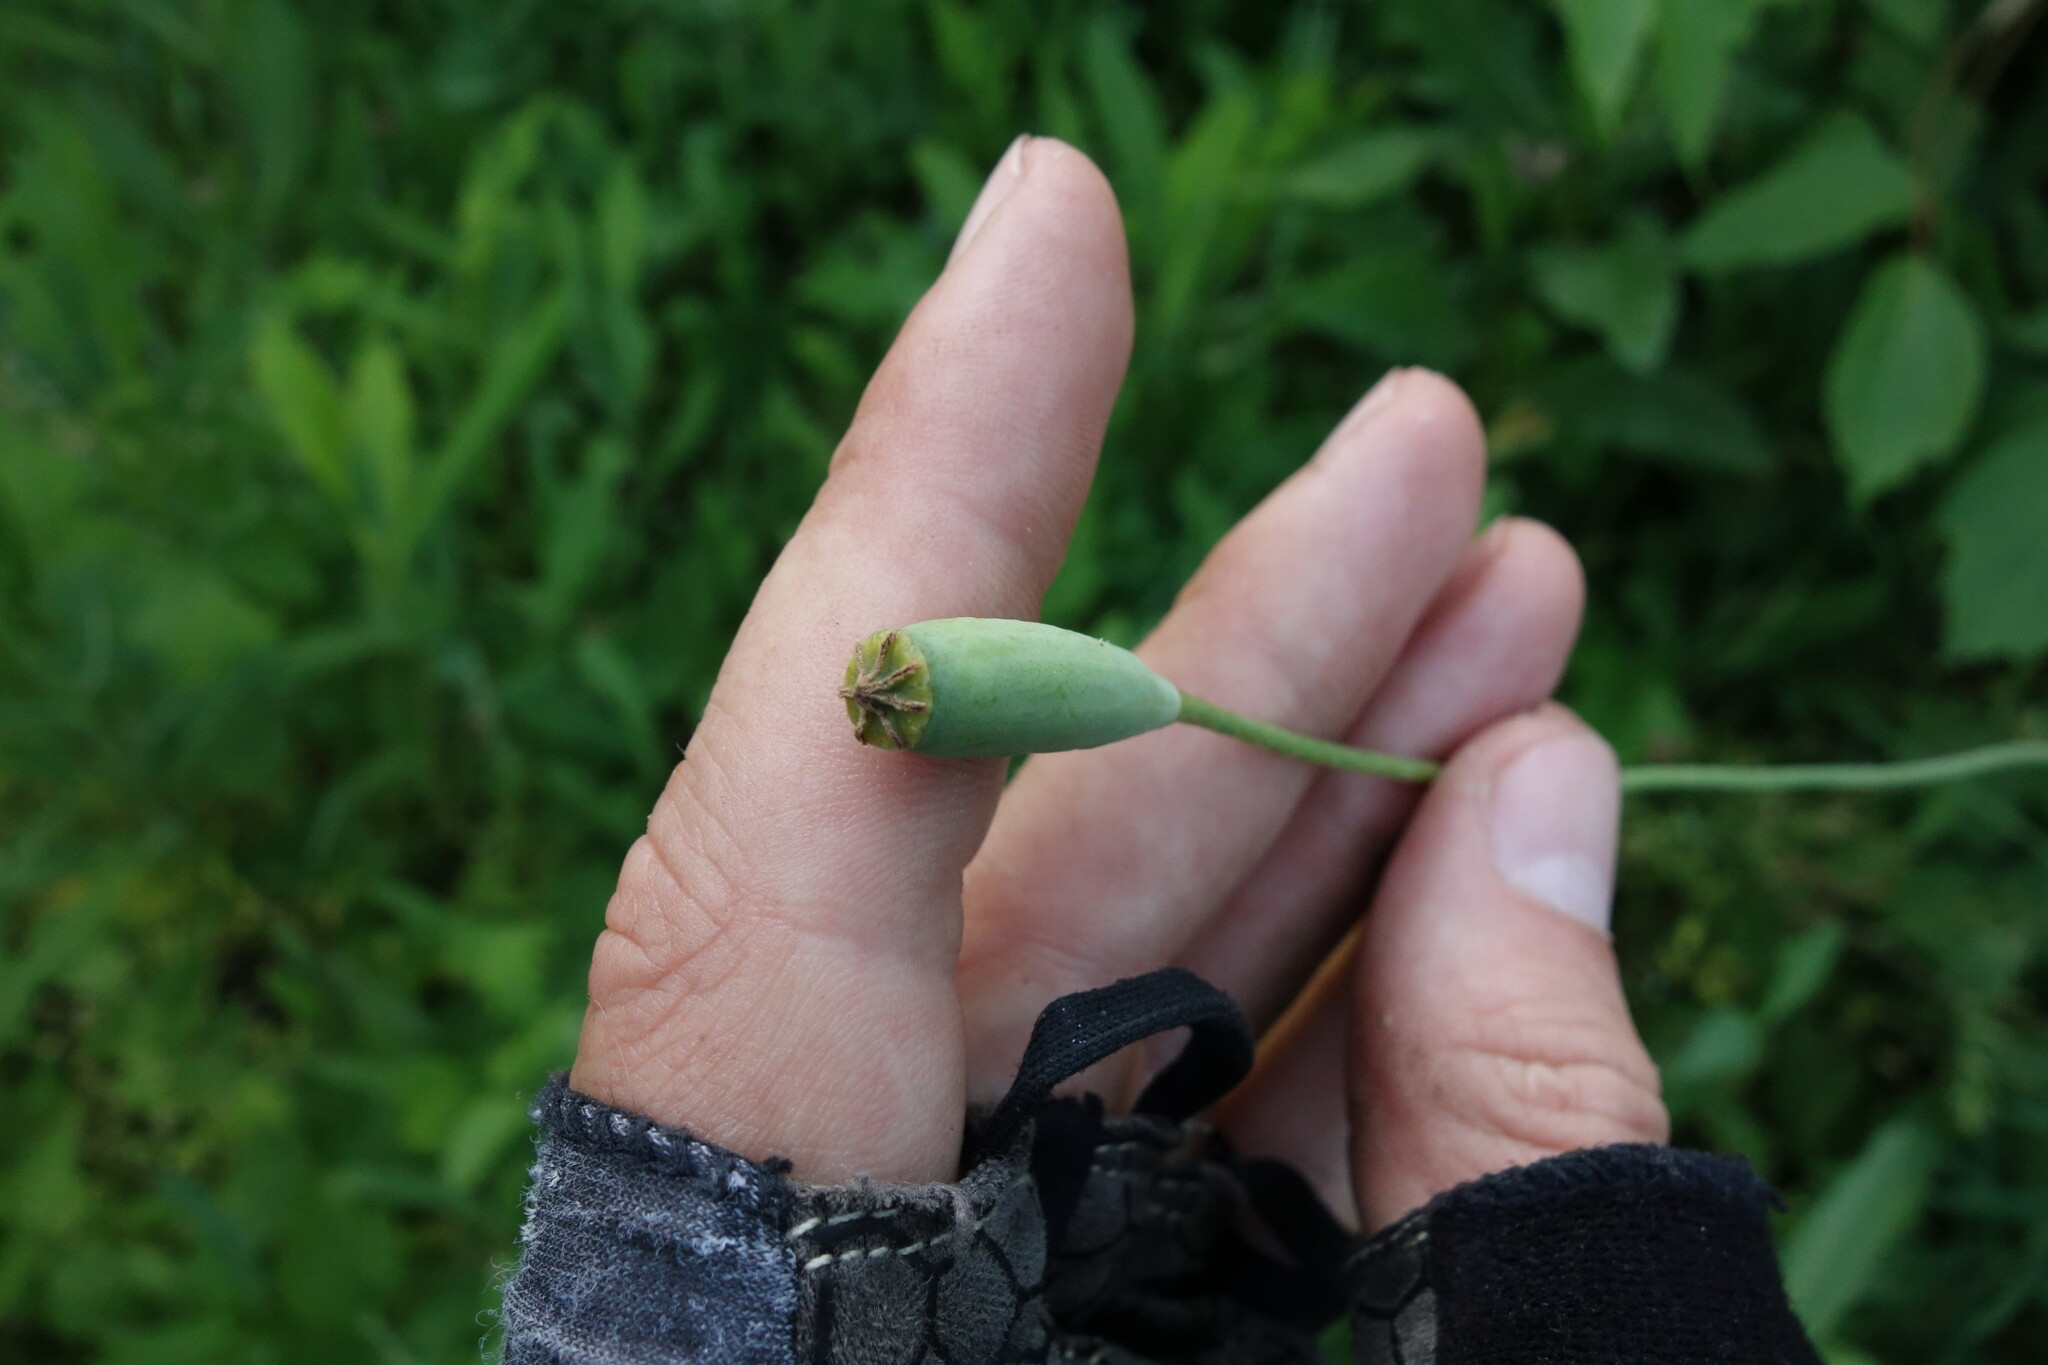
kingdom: Plantae
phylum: Tracheophyta
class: Magnoliopsida
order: Ranunculales
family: Papaveraceae
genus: Papaver
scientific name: Papaver albiflorum
